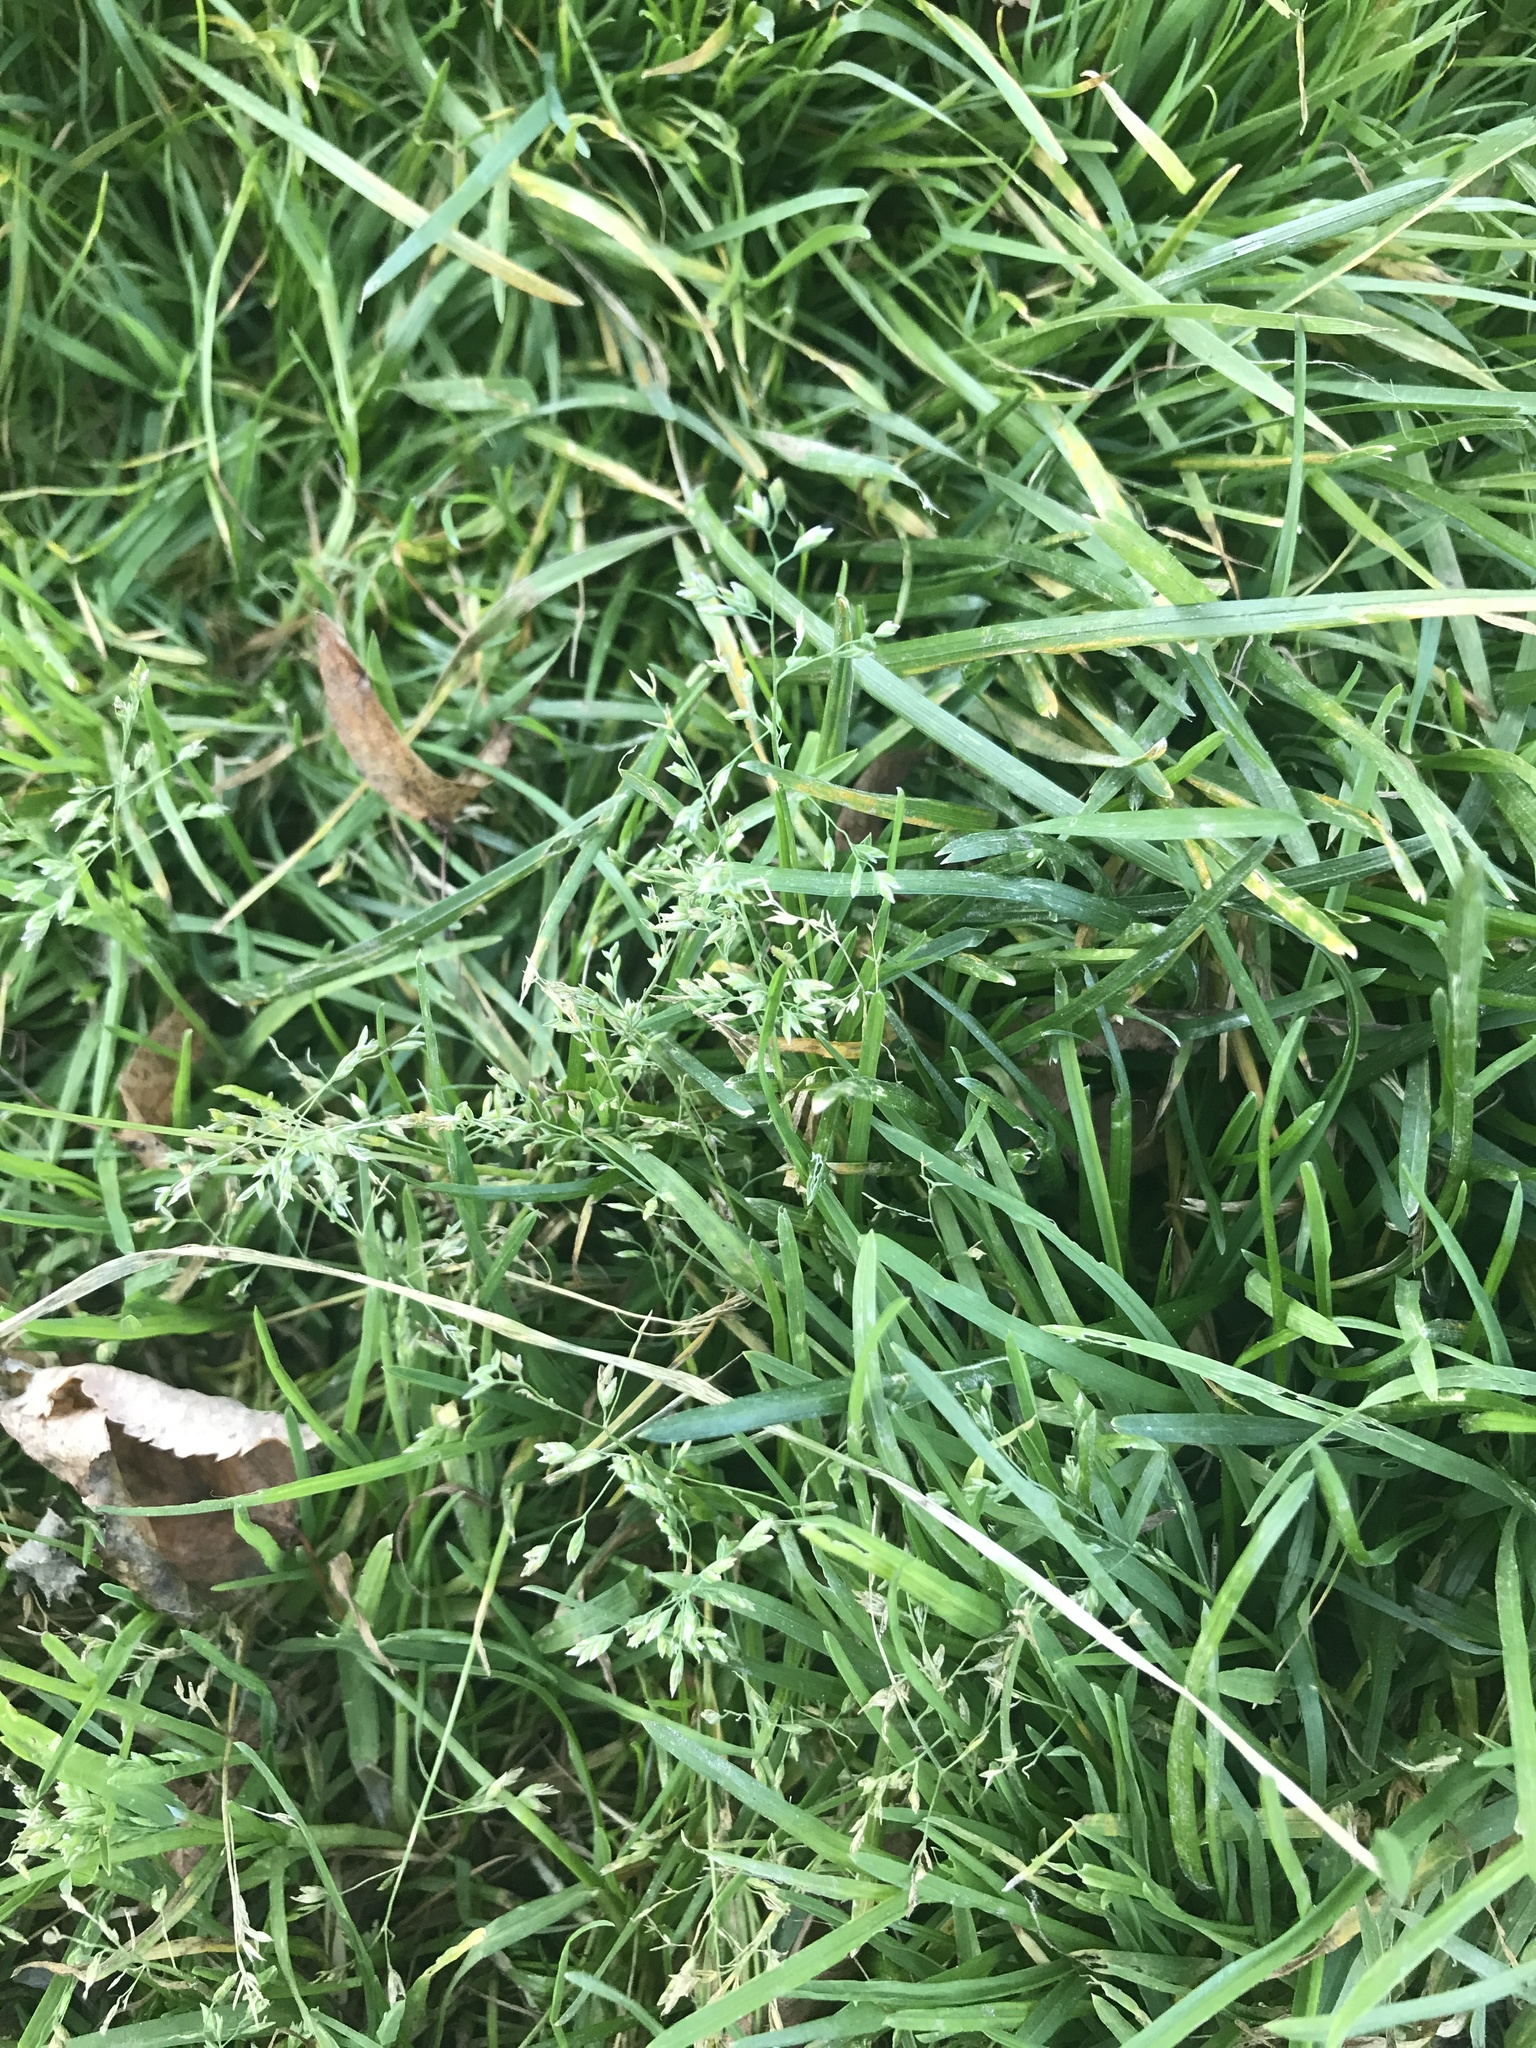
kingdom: Plantae
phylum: Tracheophyta
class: Liliopsida
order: Poales
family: Poaceae
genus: Poa
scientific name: Poa annua
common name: Annual bluegrass
